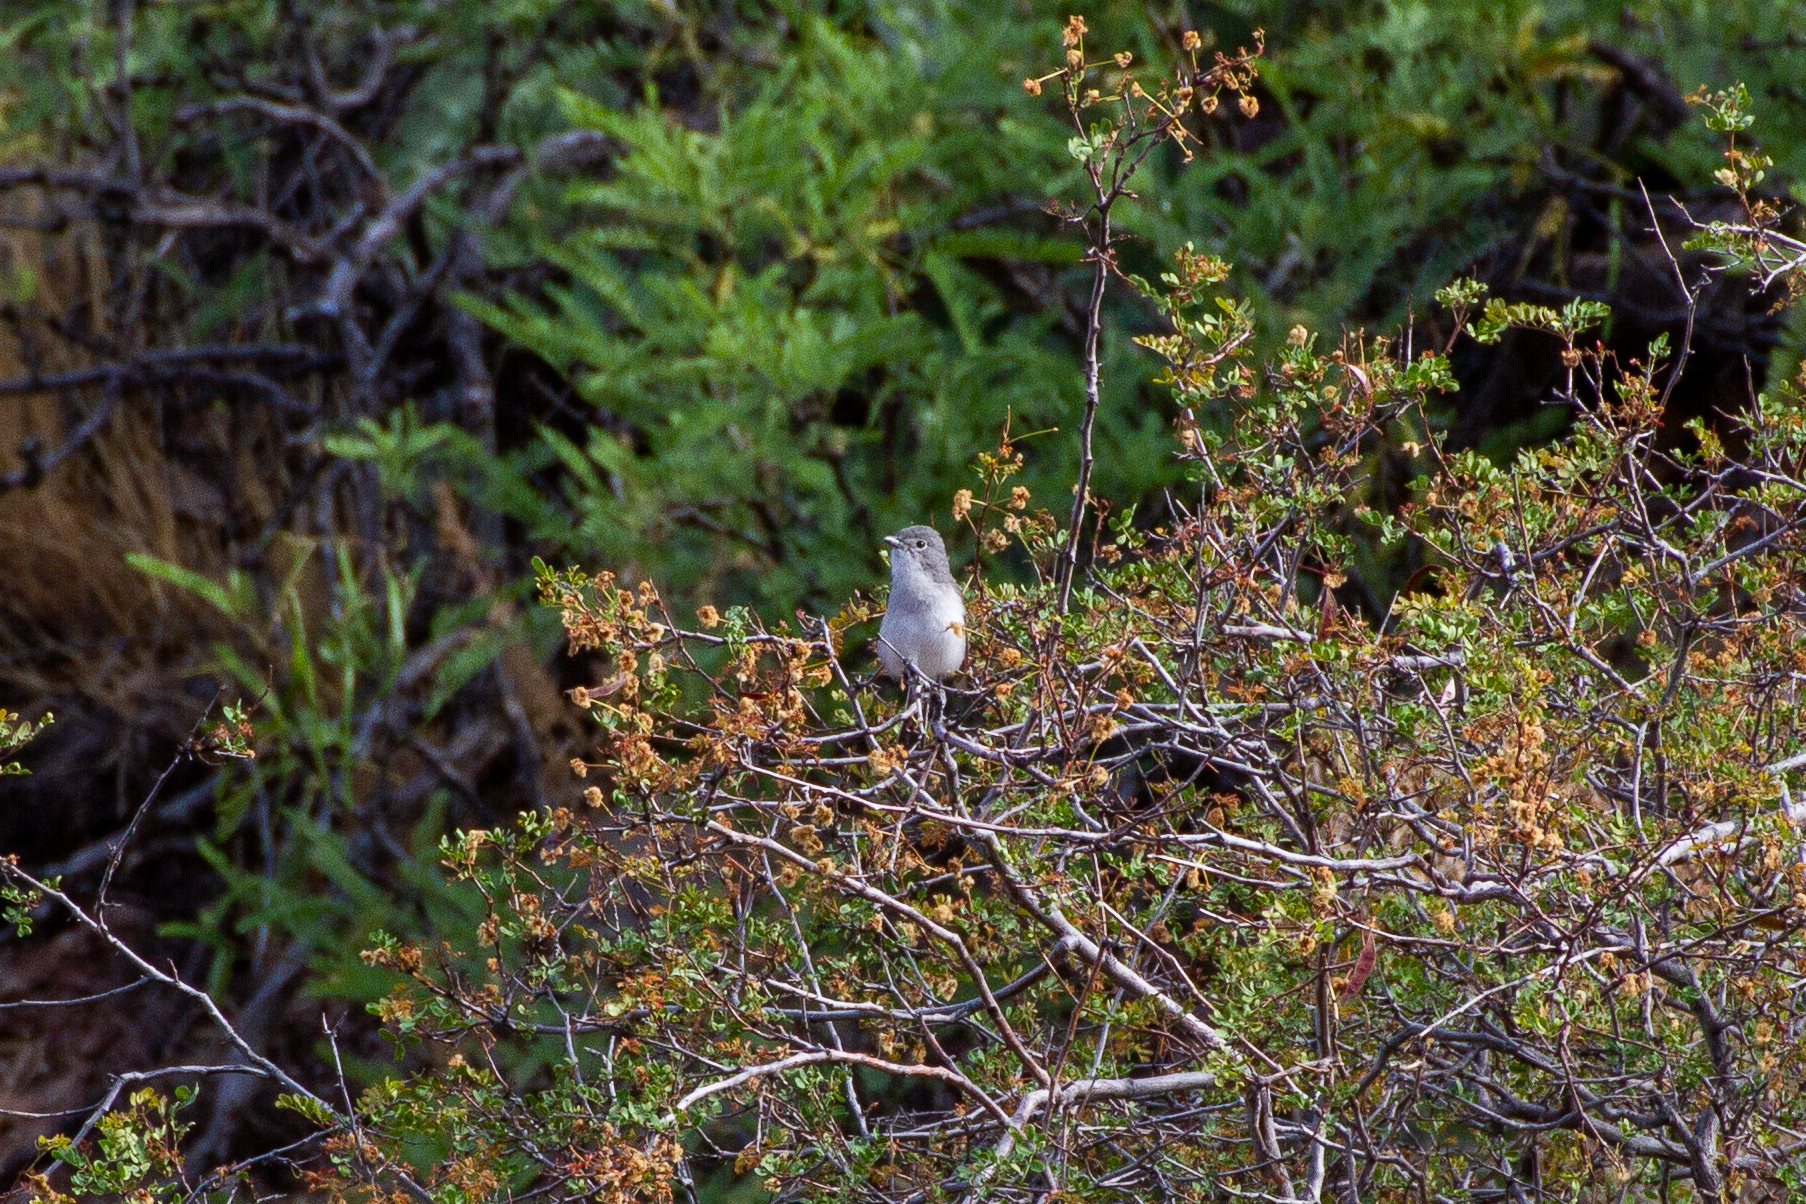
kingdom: Animalia
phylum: Chordata
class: Aves
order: Passeriformes
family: Vireonidae
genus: Vireo
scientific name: Vireo vicinior
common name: Gray vireo
